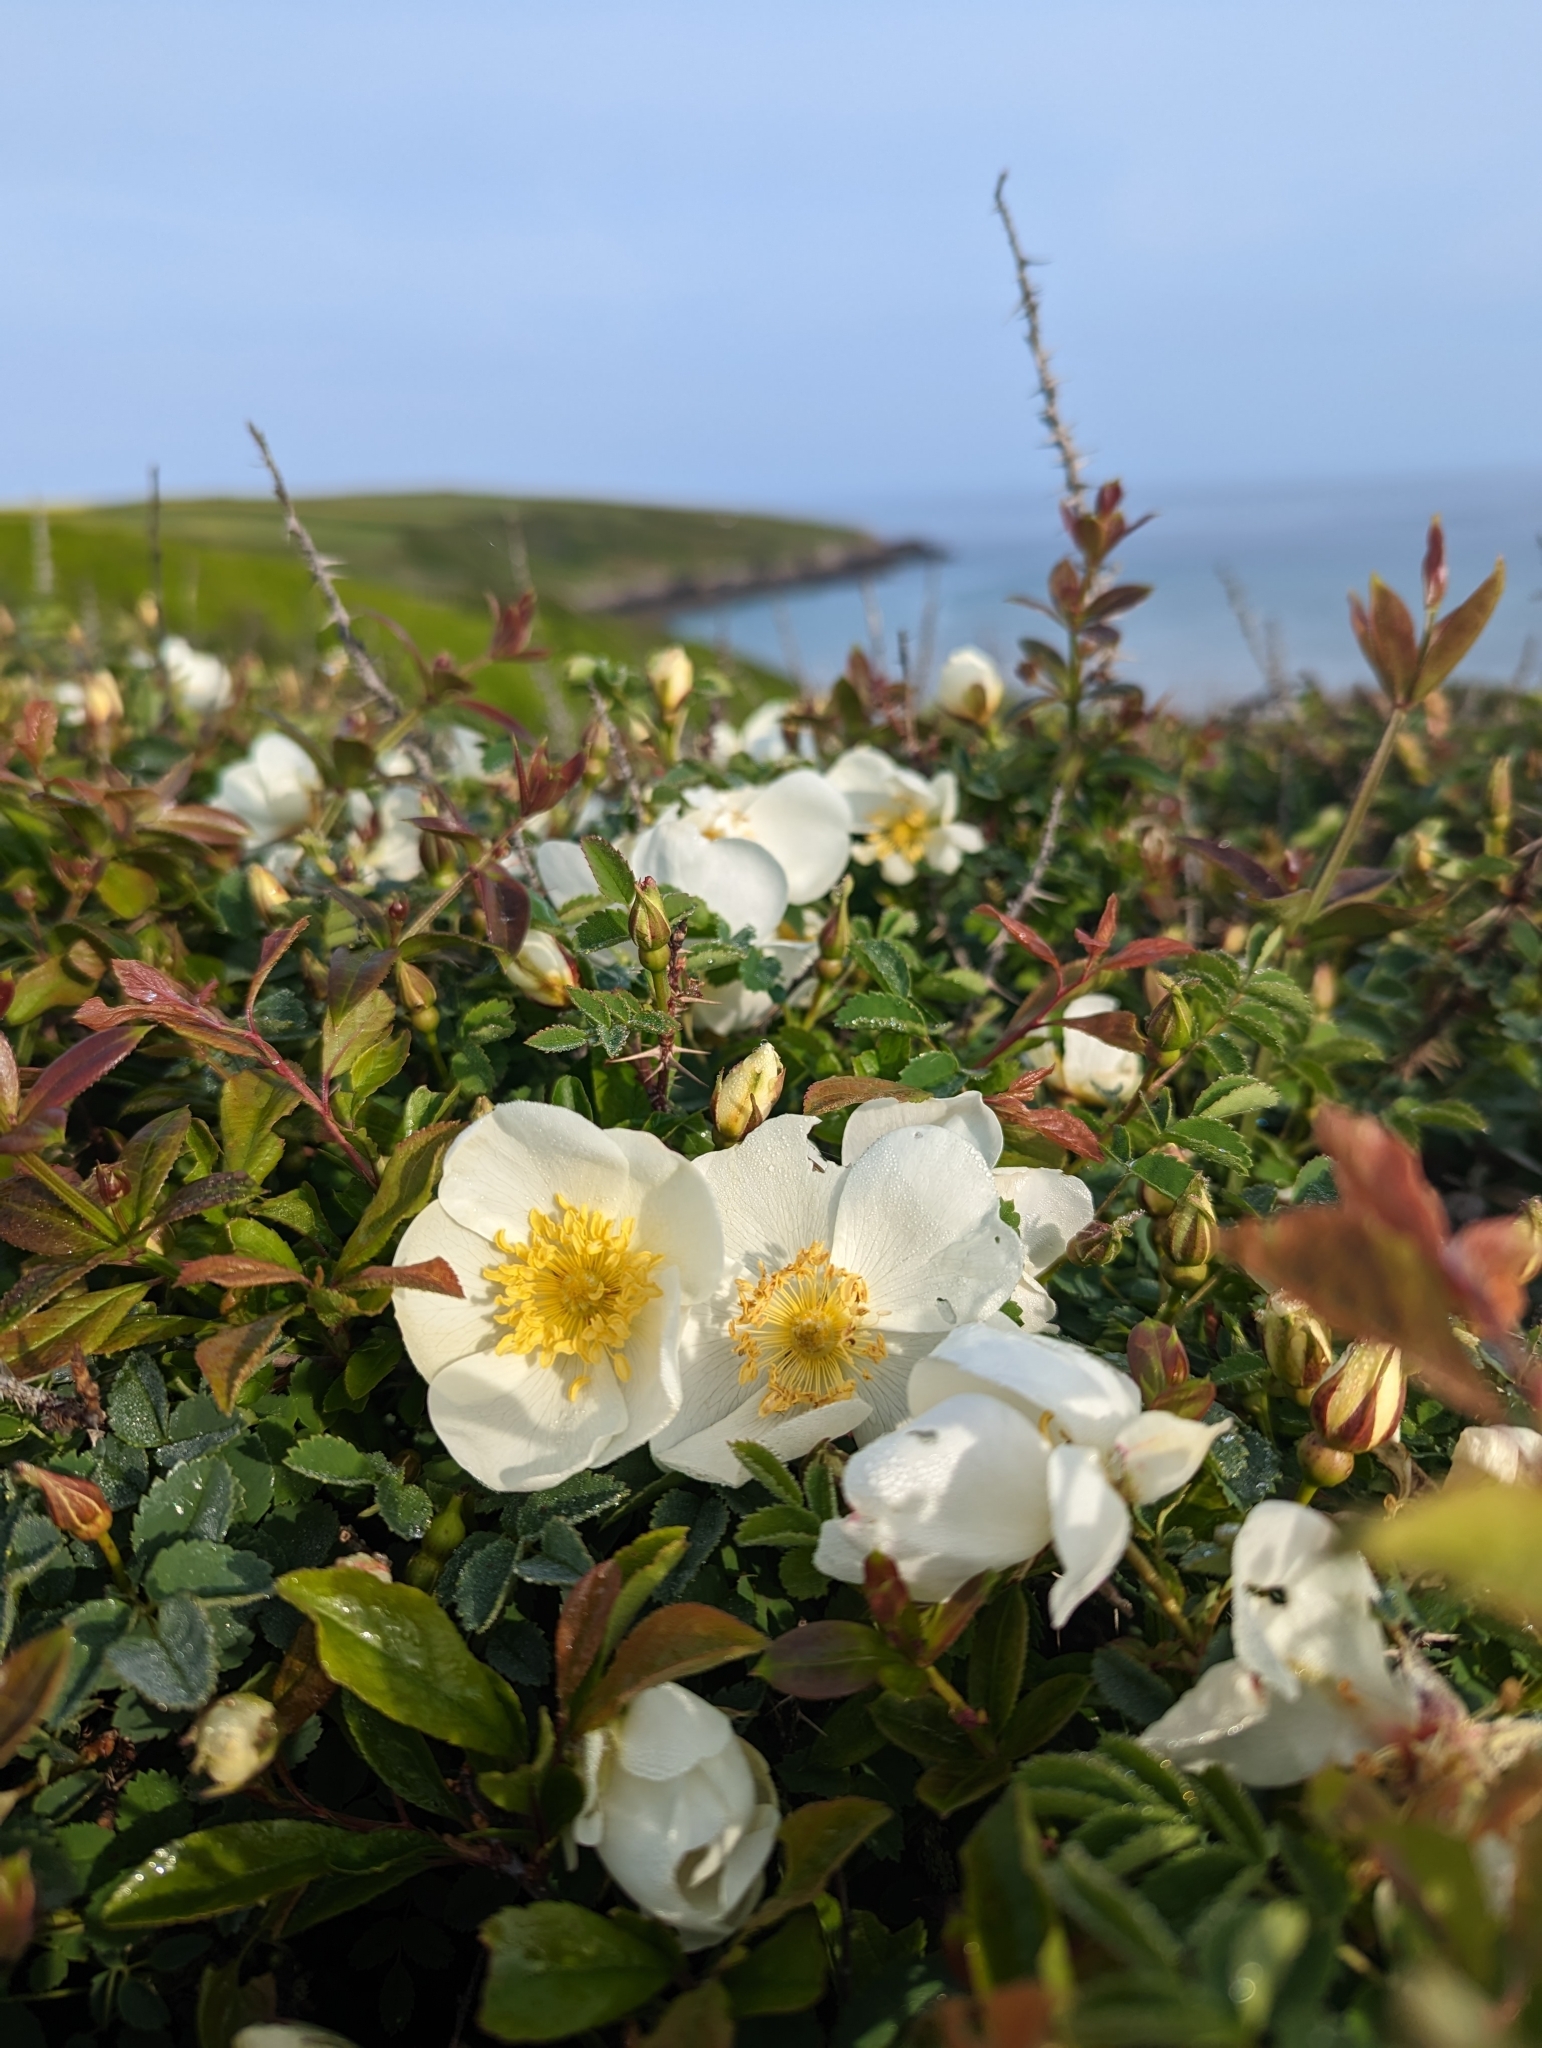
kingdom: Plantae
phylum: Tracheophyta
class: Magnoliopsida
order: Rosales
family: Rosaceae
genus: Rosa
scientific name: Rosa spinosissima
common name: Burnet rose
